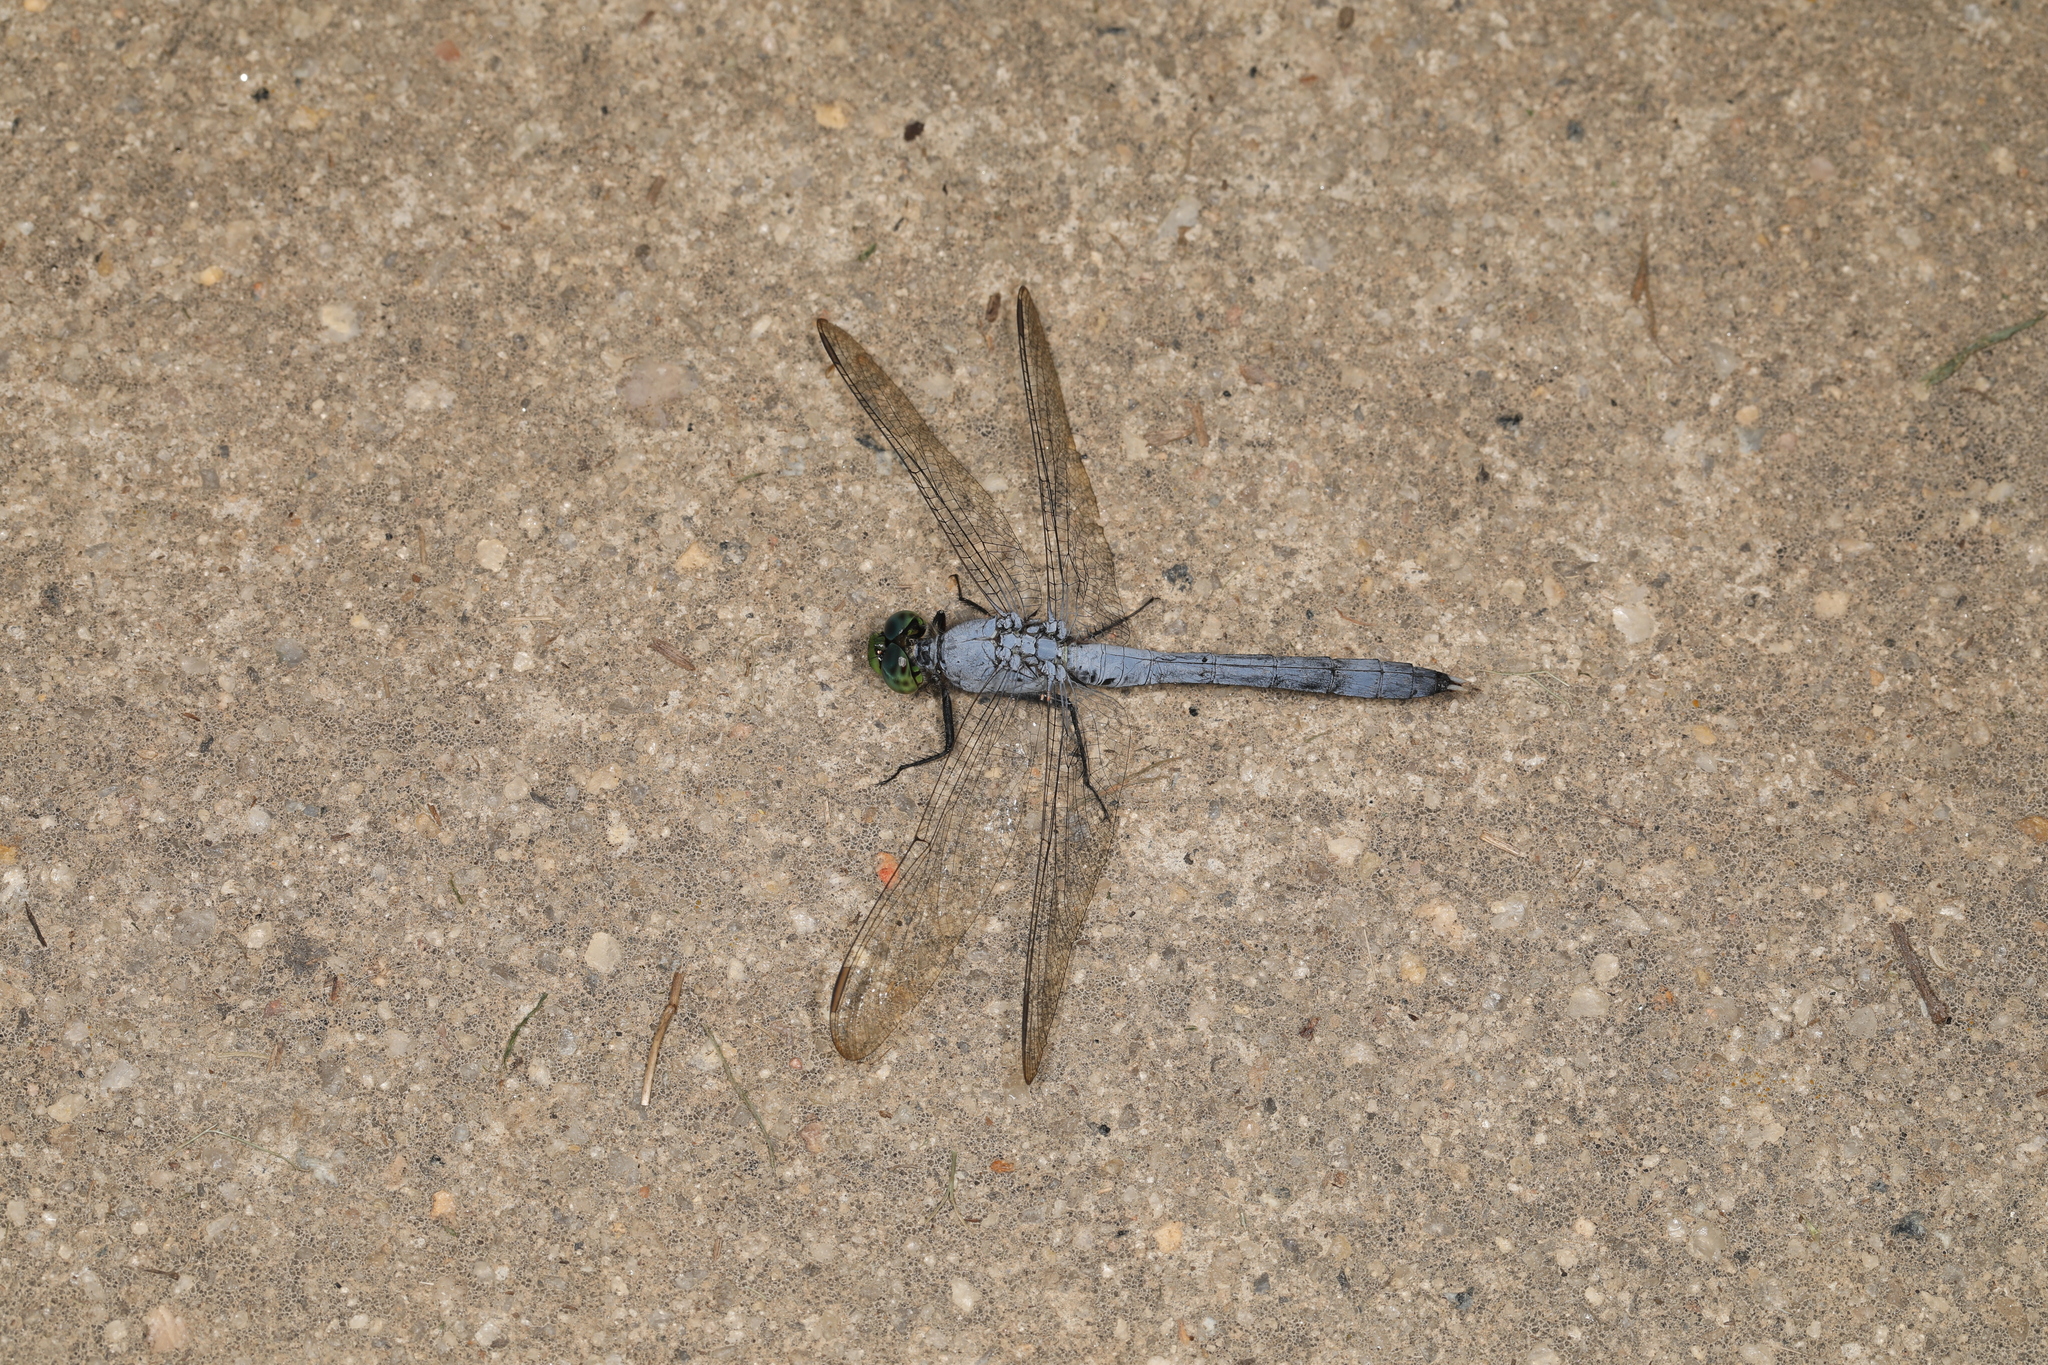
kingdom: Animalia
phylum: Arthropoda
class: Insecta
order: Odonata
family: Libellulidae
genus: Erythemis
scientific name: Erythemis simplicicollis
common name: Eastern pondhawk
